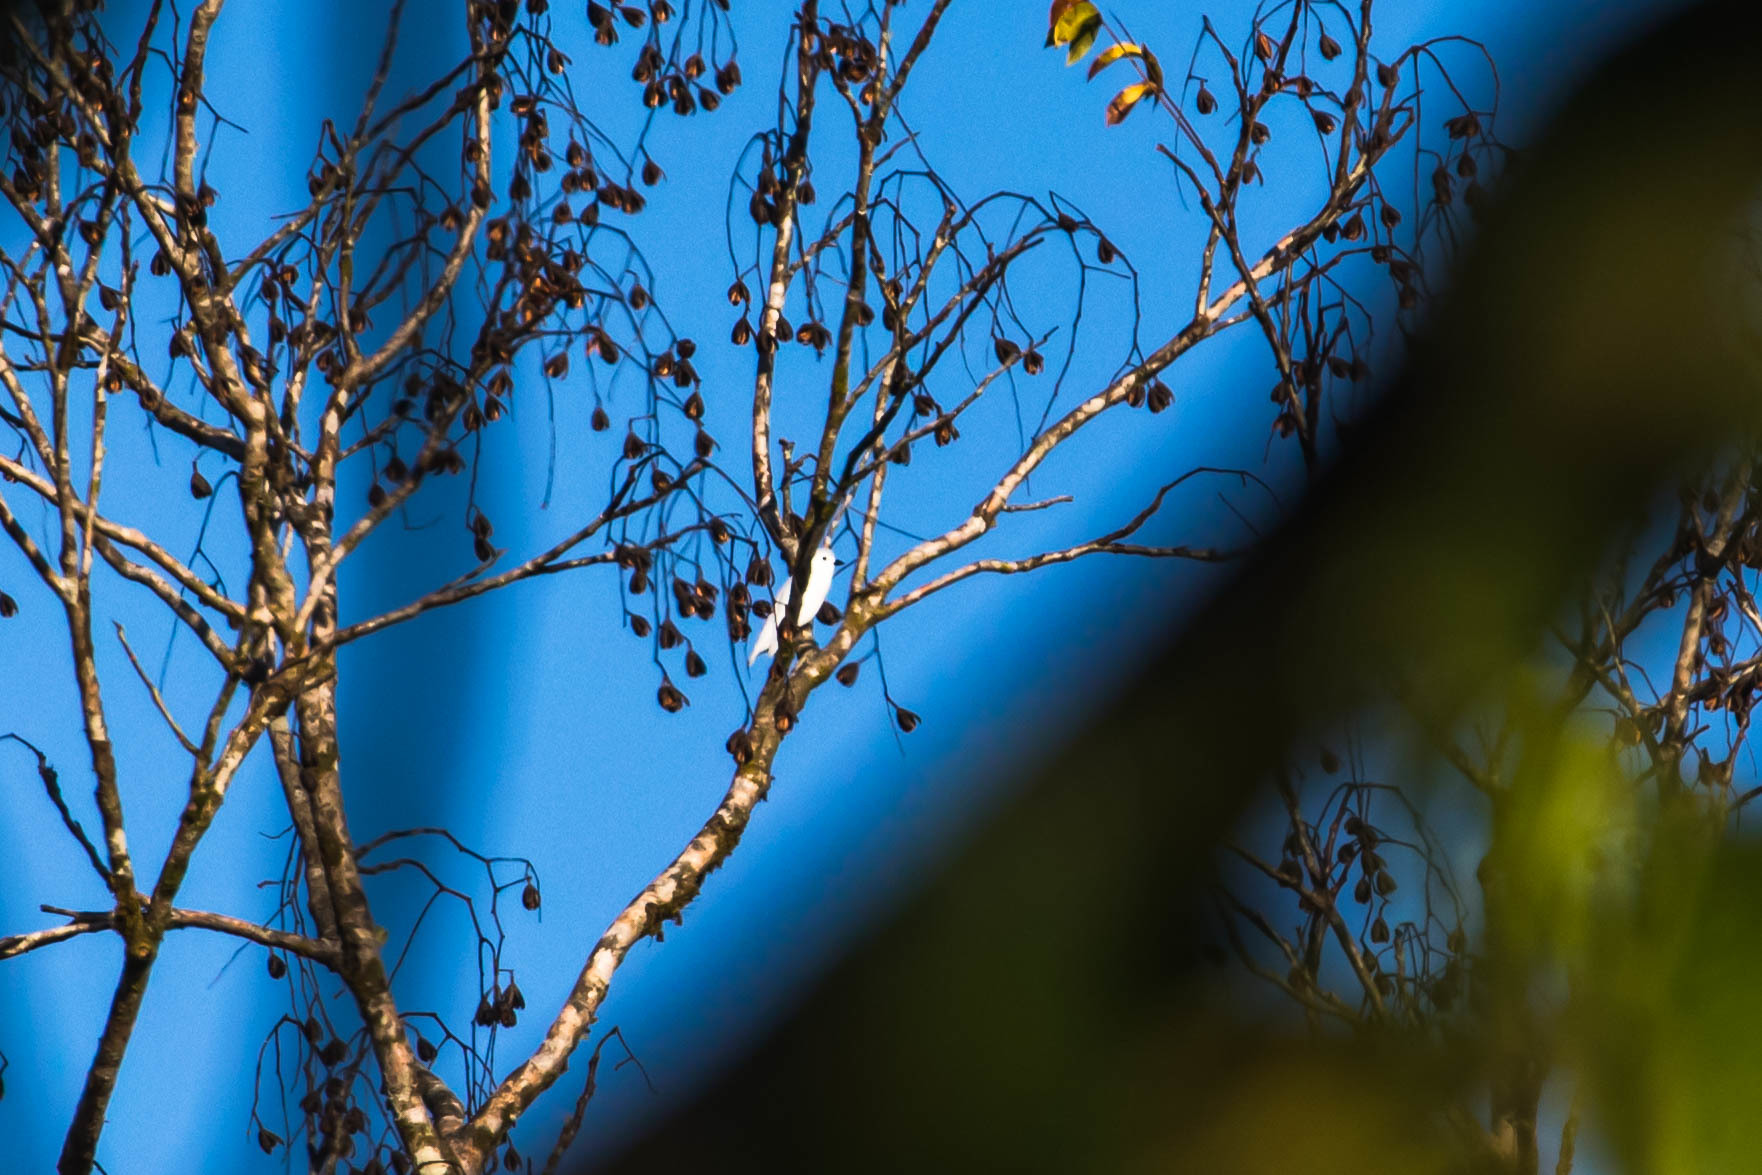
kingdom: Animalia
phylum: Chordata
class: Aves
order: Passeriformes
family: Cotingidae
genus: Carpodectes
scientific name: Carpodectes nitidus
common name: Snowy cotinga
